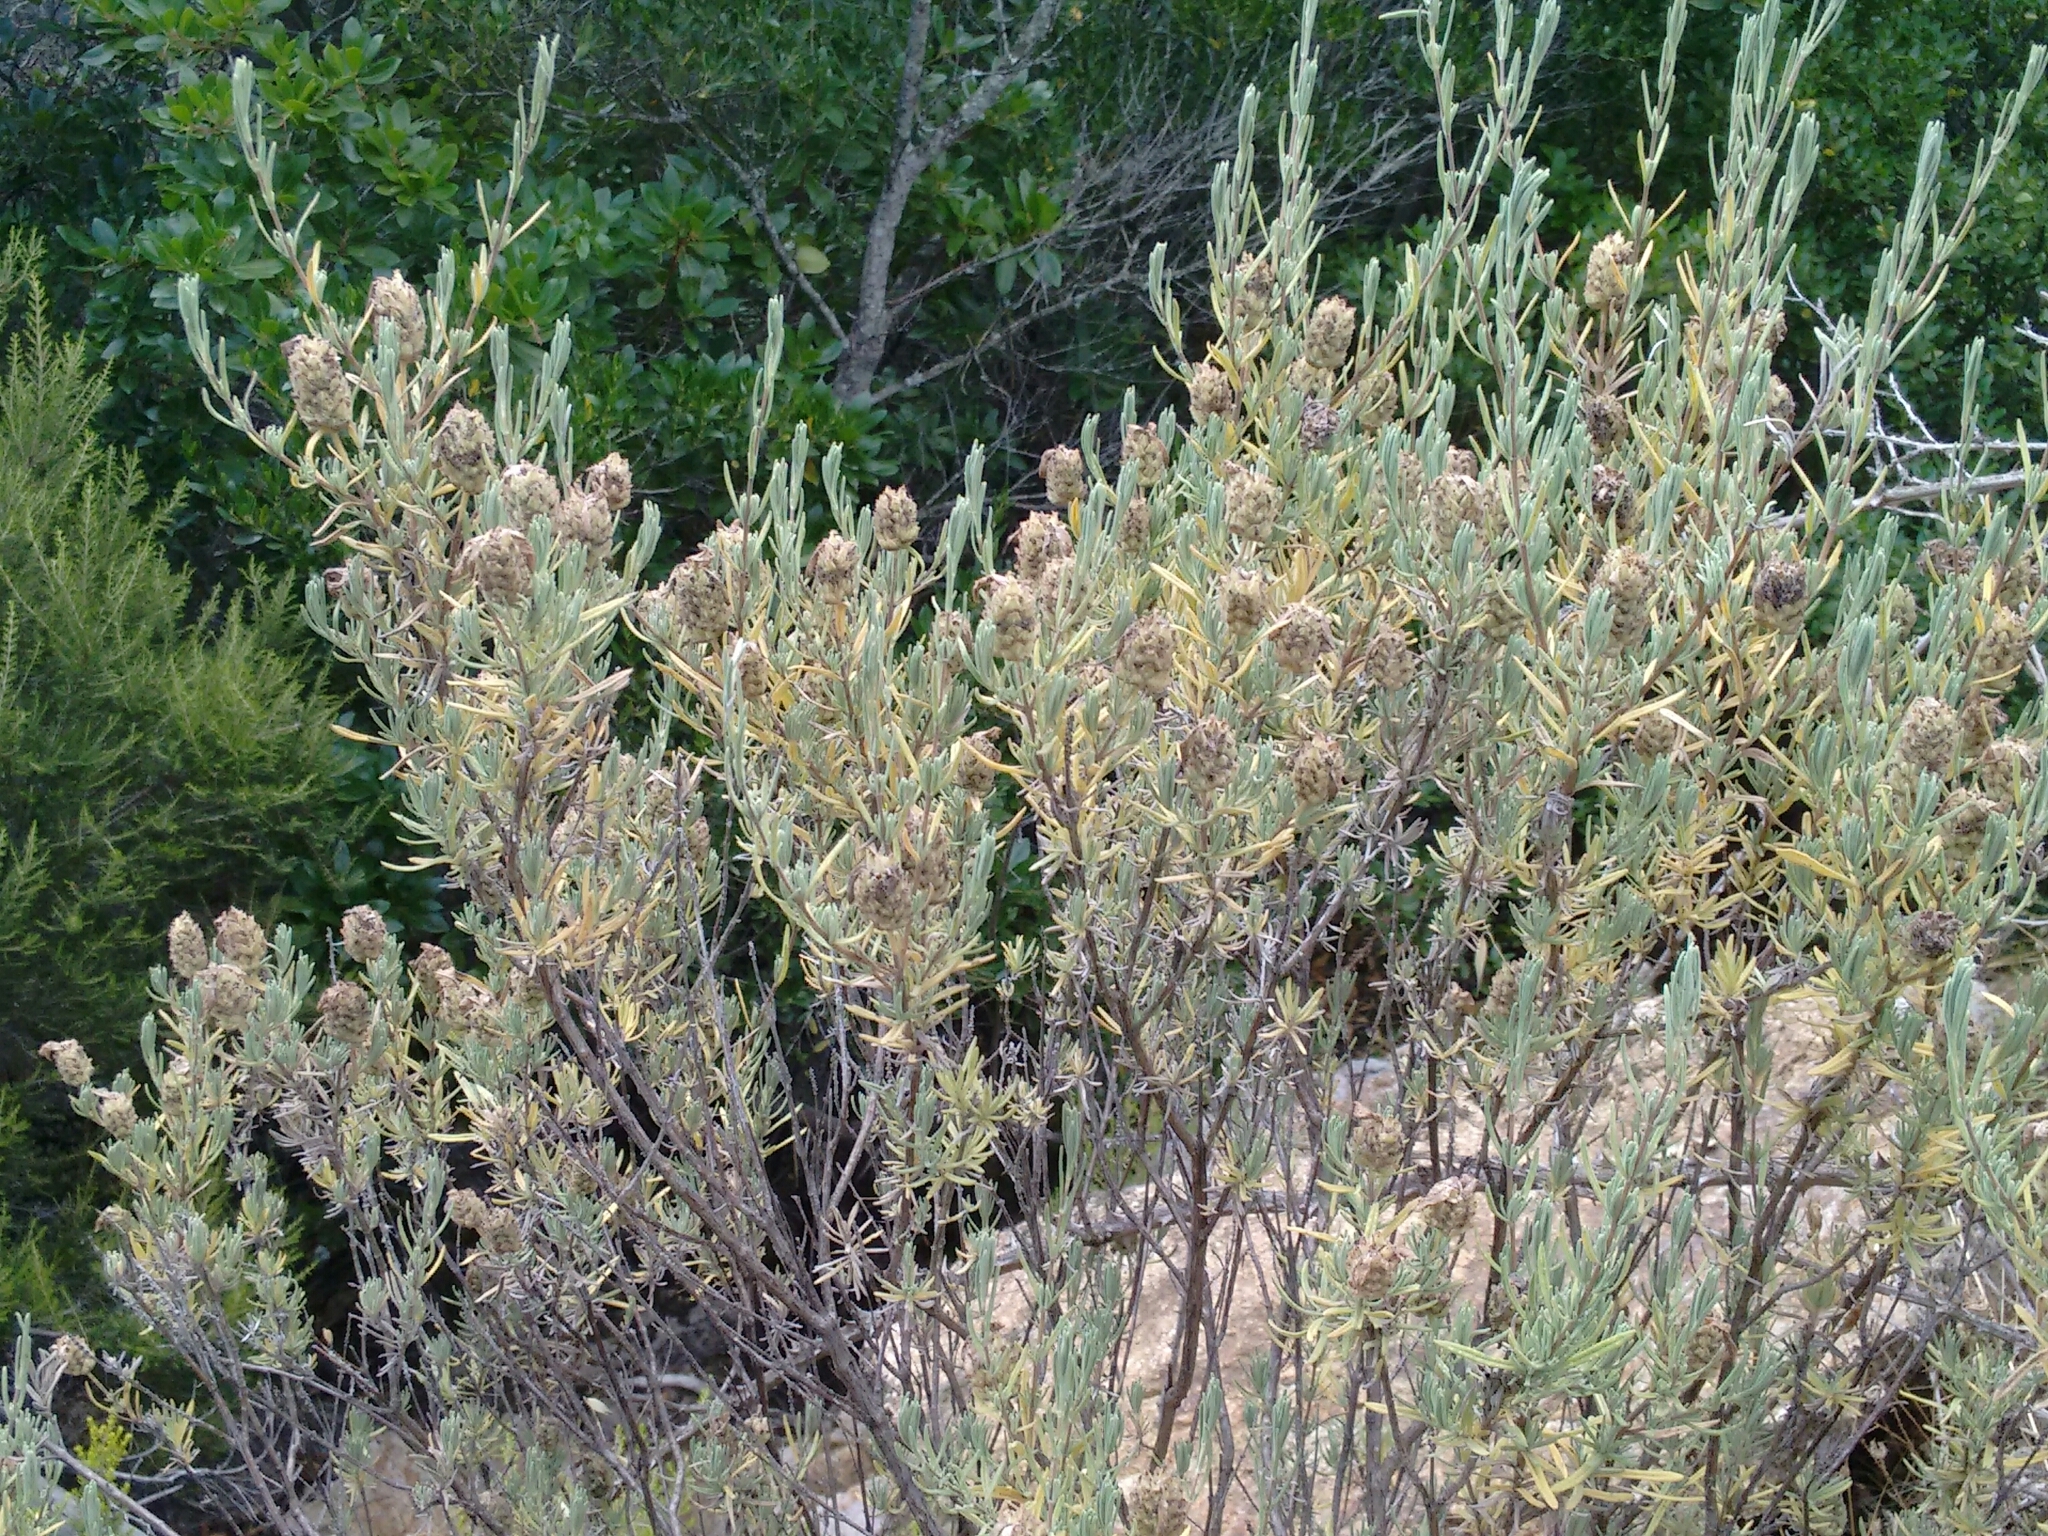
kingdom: Plantae
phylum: Tracheophyta
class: Magnoliopsida
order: Lamiales
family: Lamiaceae
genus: Lavandula
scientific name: Lavandula stoechas
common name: French lavender
